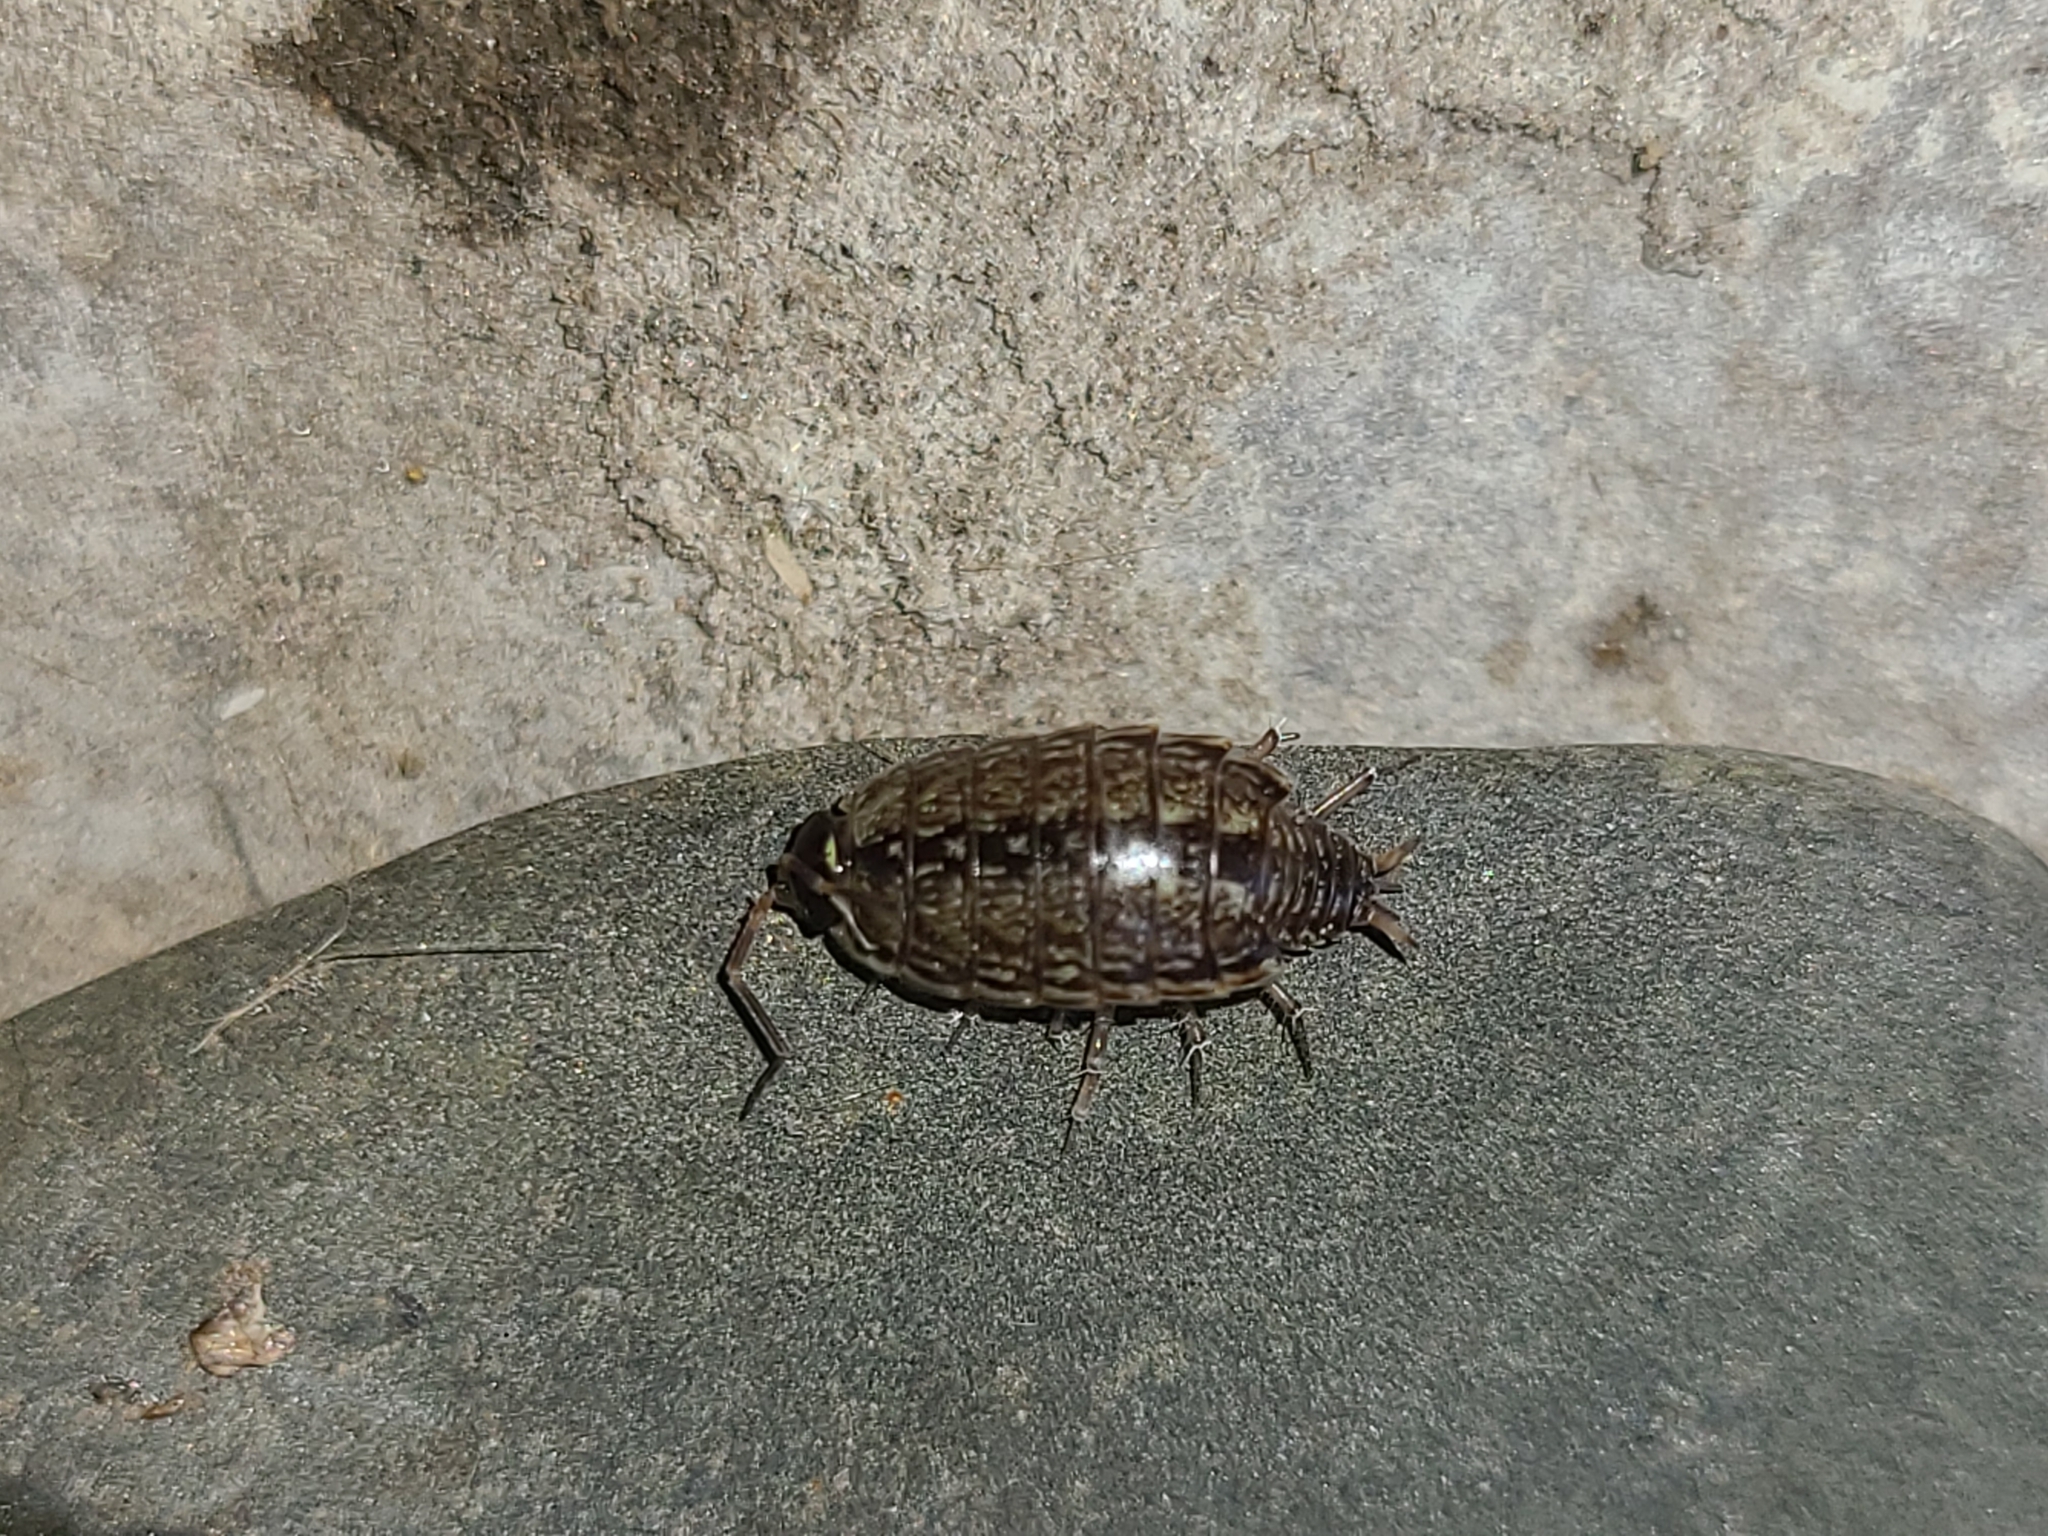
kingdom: Animalia
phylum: Arthropoda
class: Malacostraca
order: Isopoda
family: Philosciidae
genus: Philoscia
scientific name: Philoscia muscorum
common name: Common striped woodlouse
